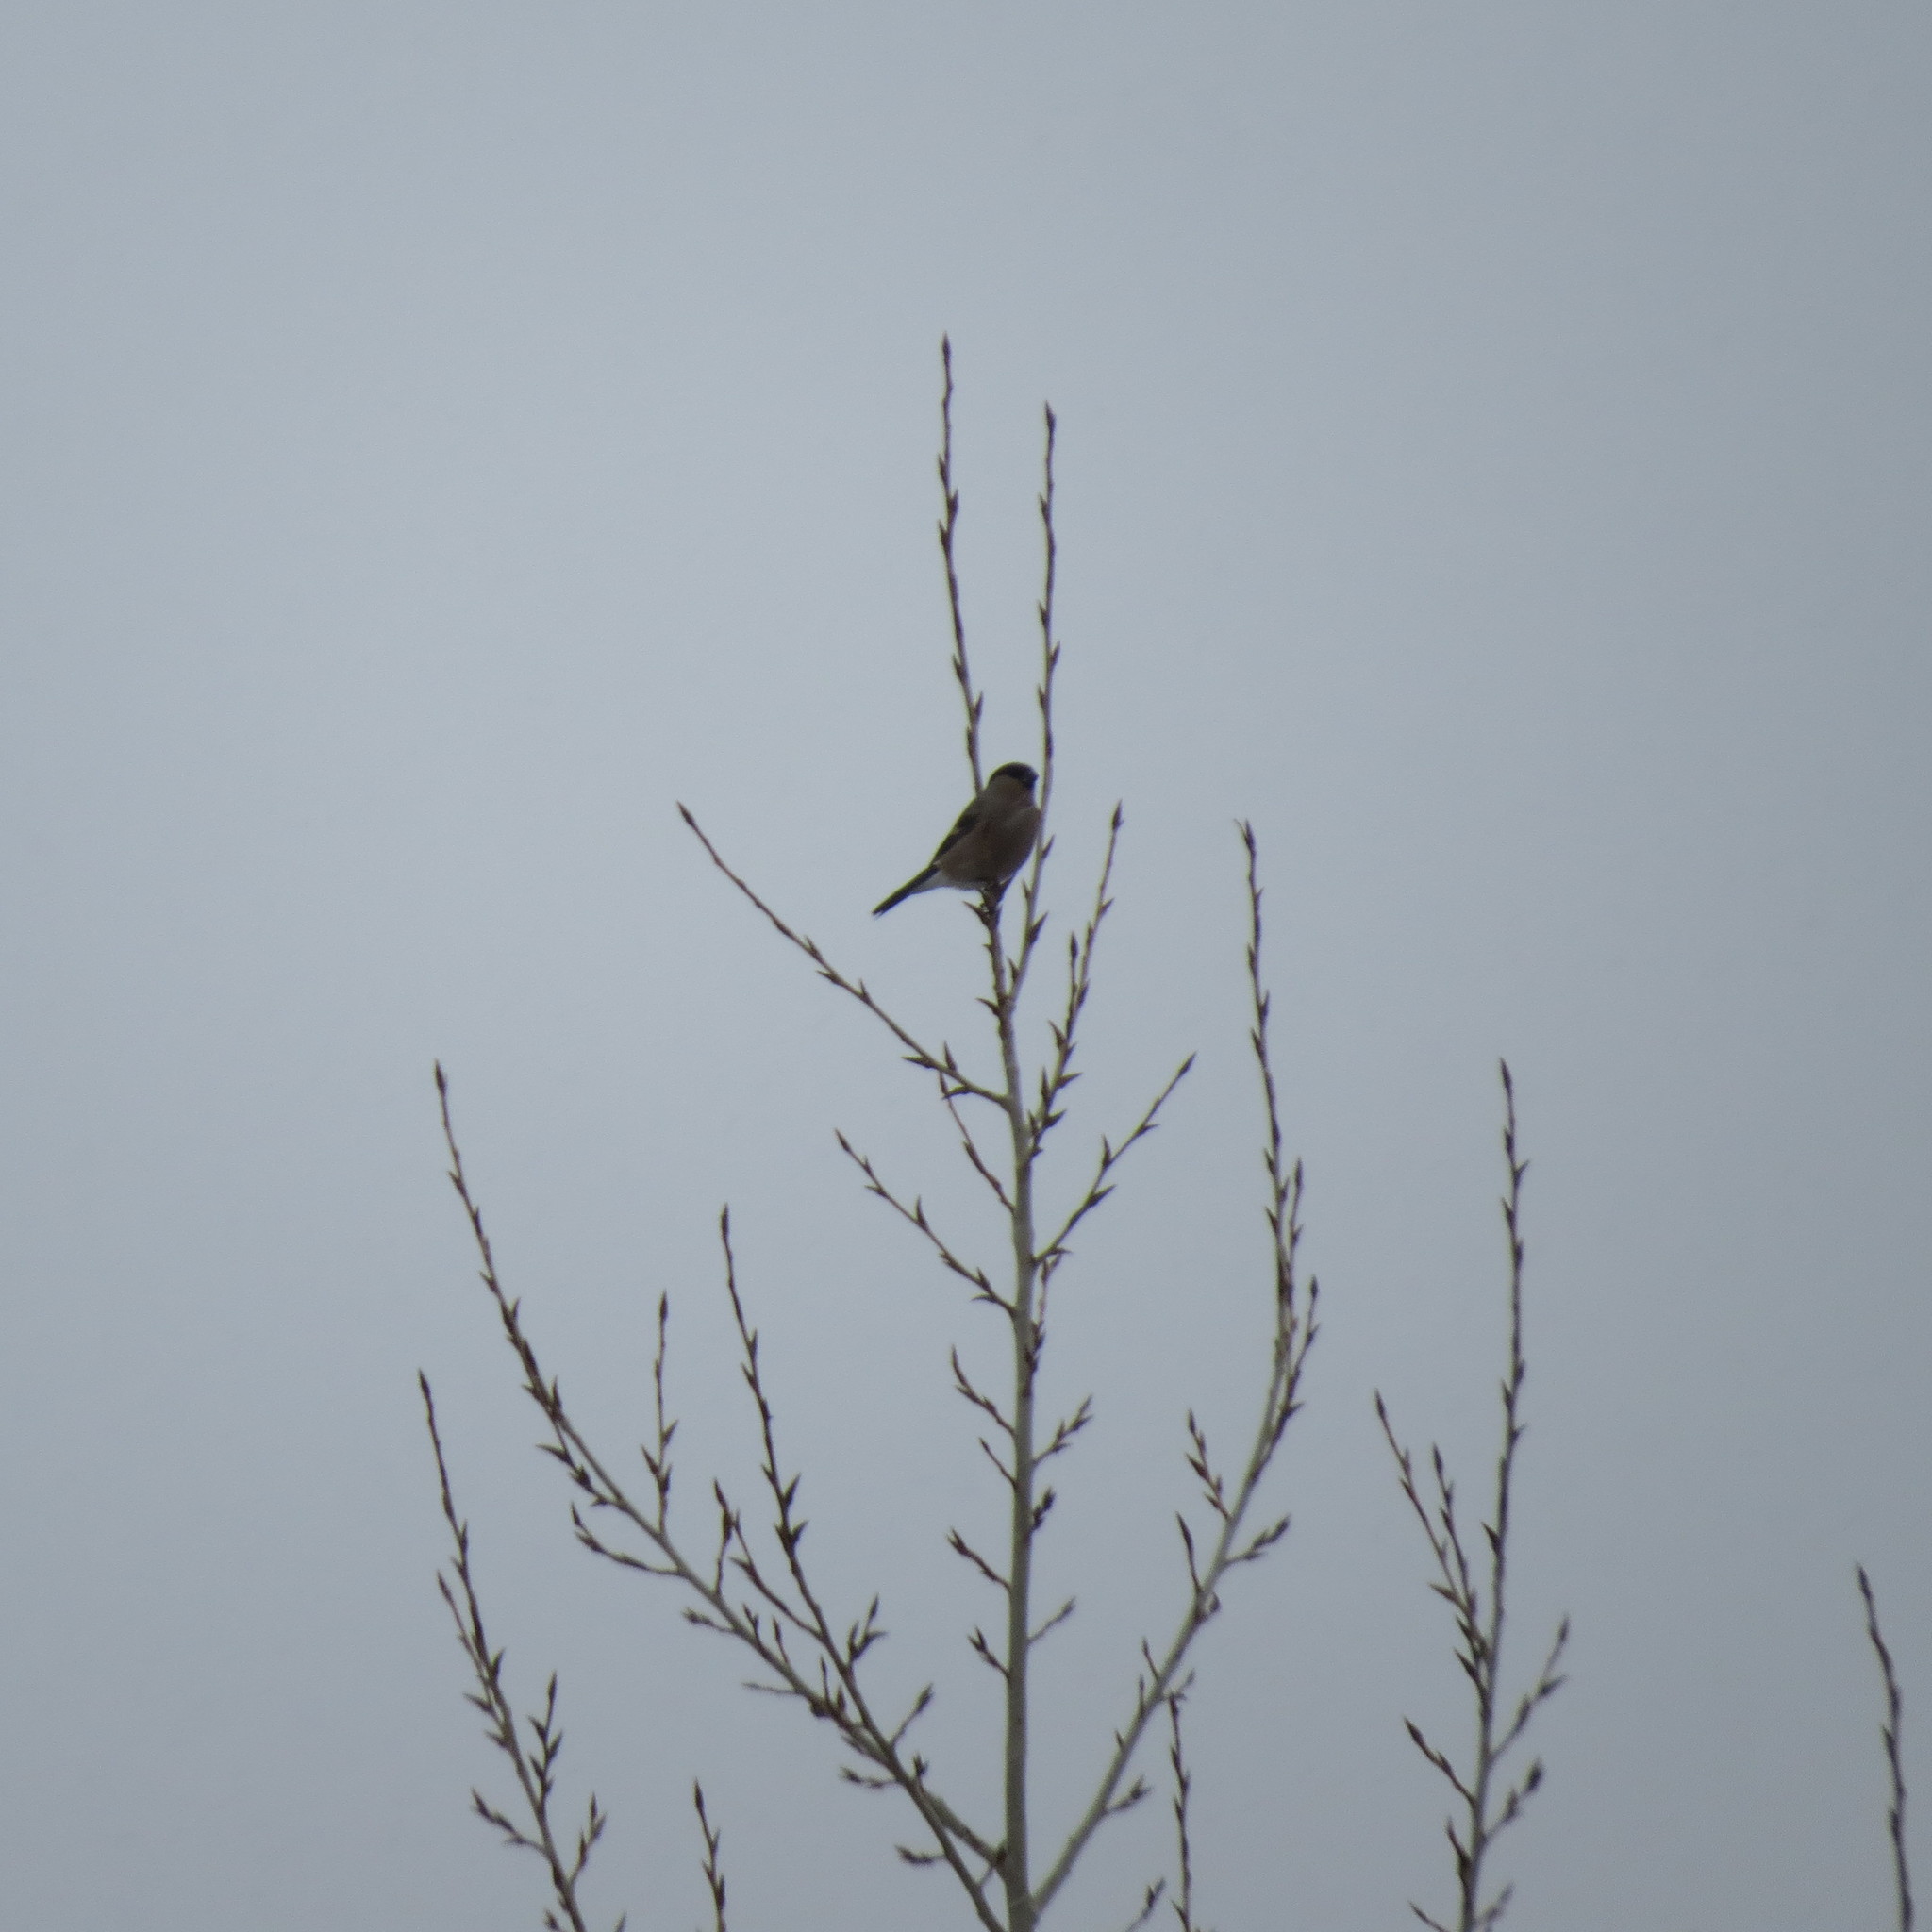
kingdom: Animalia
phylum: Chordata
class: Aves
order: Passeriformes
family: Fringillidae
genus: Pyrrhula
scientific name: Pyrrhula pyrrhula
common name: Eurasian bullfinch
